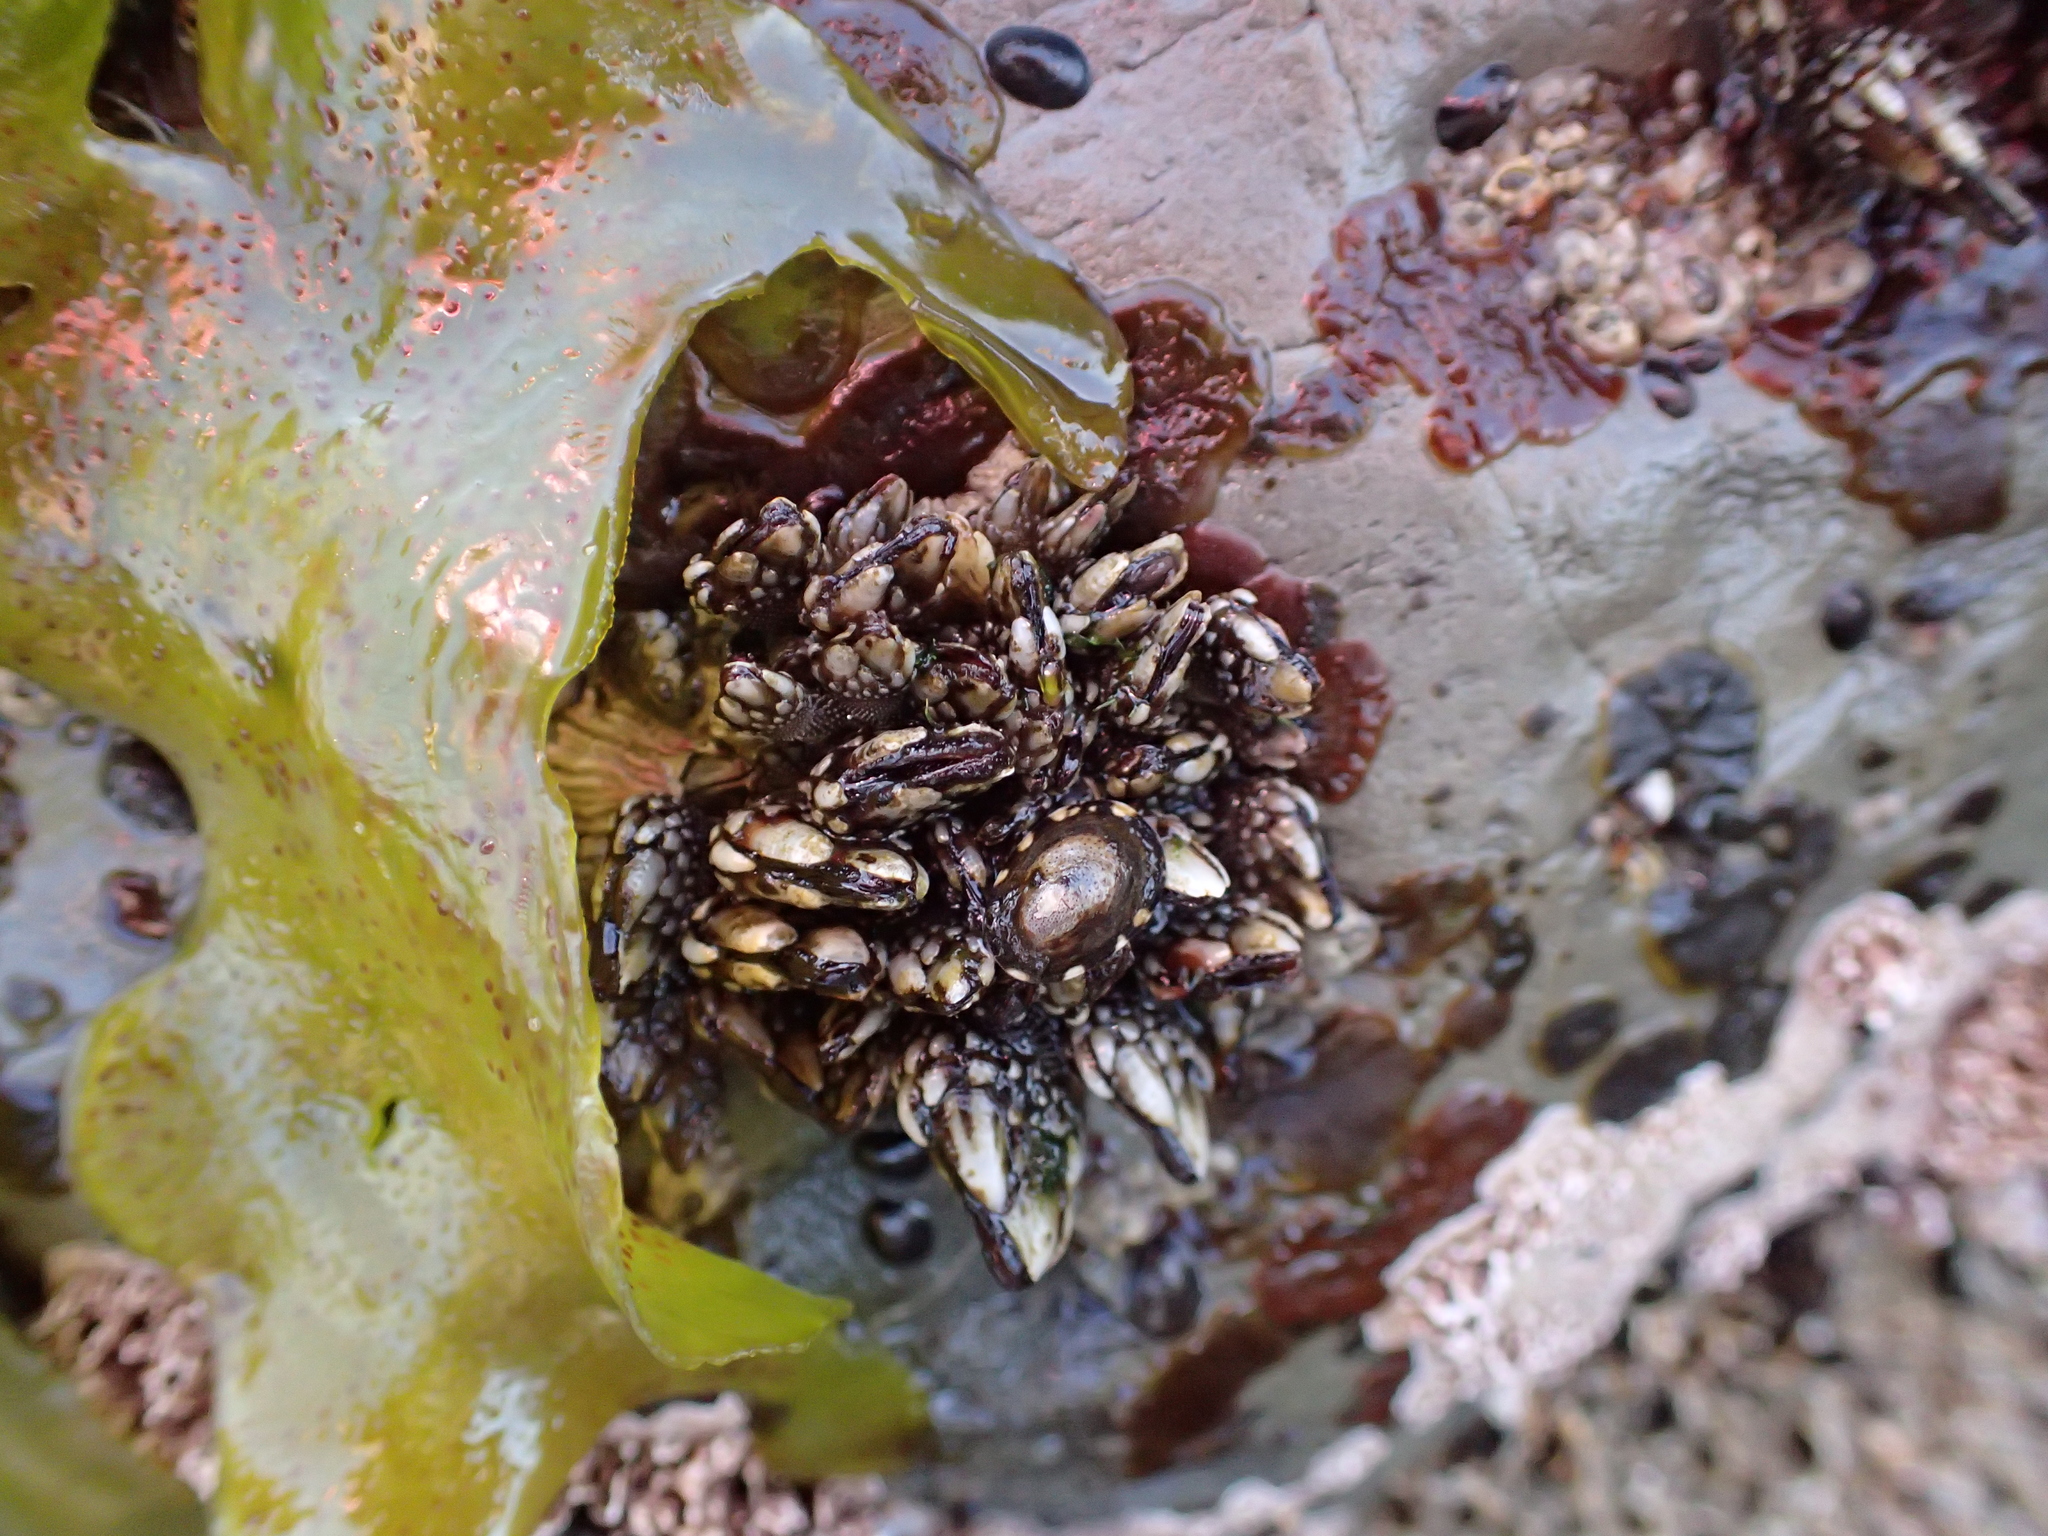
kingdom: Animalia
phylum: Arthropoda
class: Maxillopoda
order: Pedunculata
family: Pollicipedidae
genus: Pollicipes
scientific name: Pollicipes polymerus
